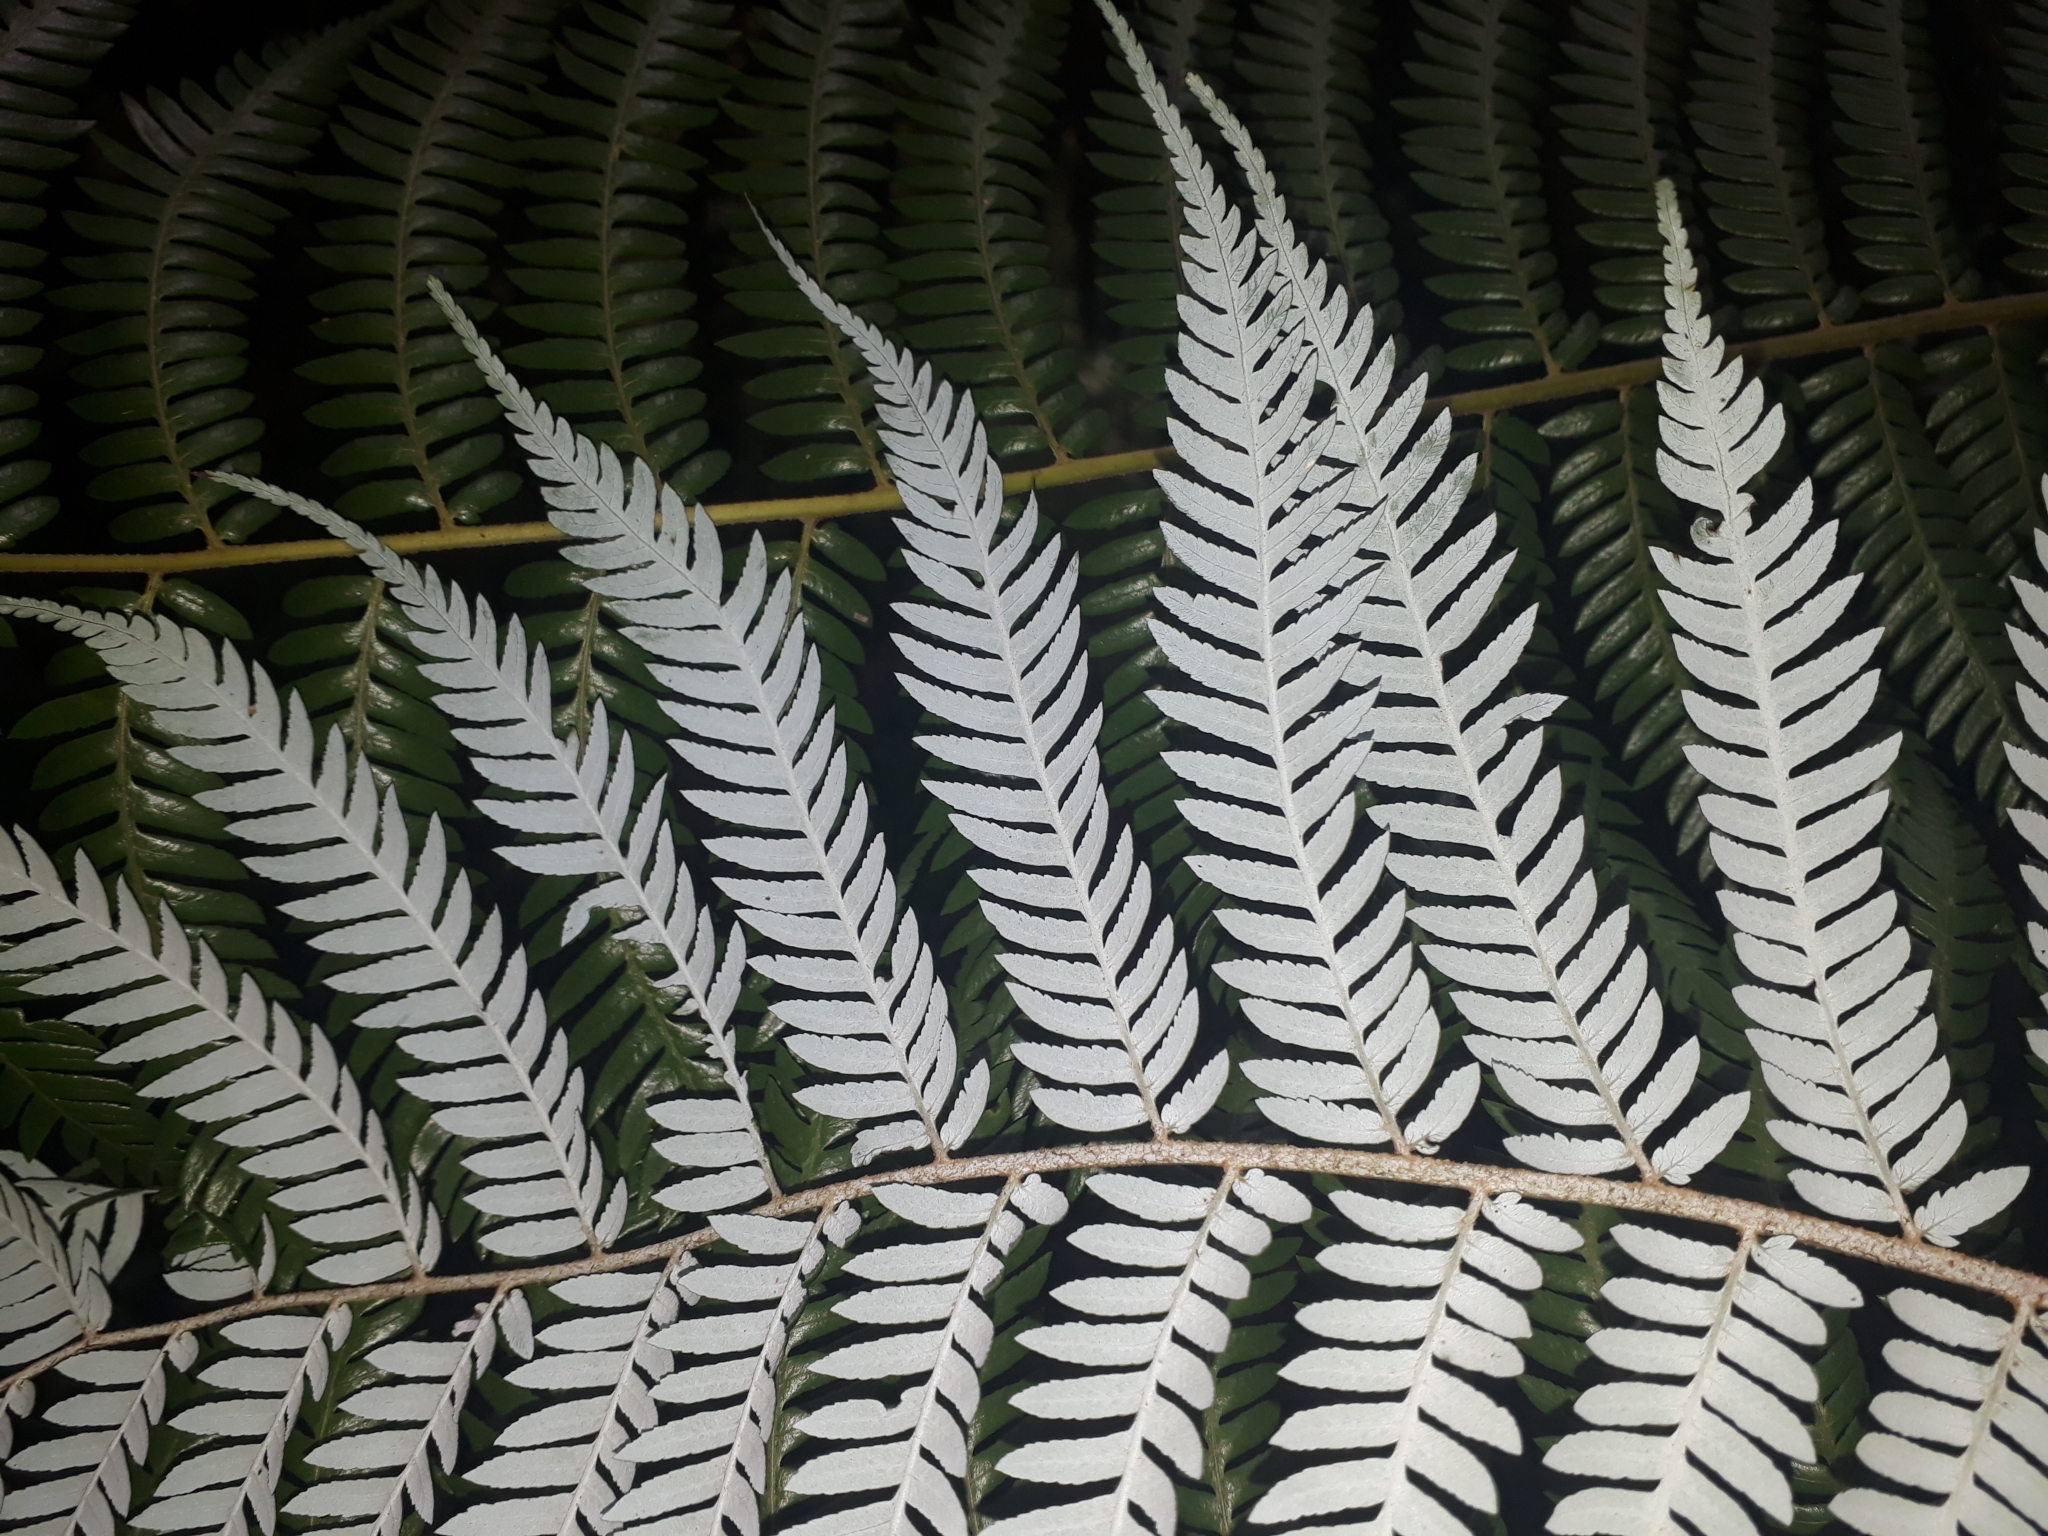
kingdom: Plantae
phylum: Tracheophyta
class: Polypodiopsida
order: Cyatheales
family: Cyatheaceae
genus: Alsophila
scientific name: Alsophila dealbata
